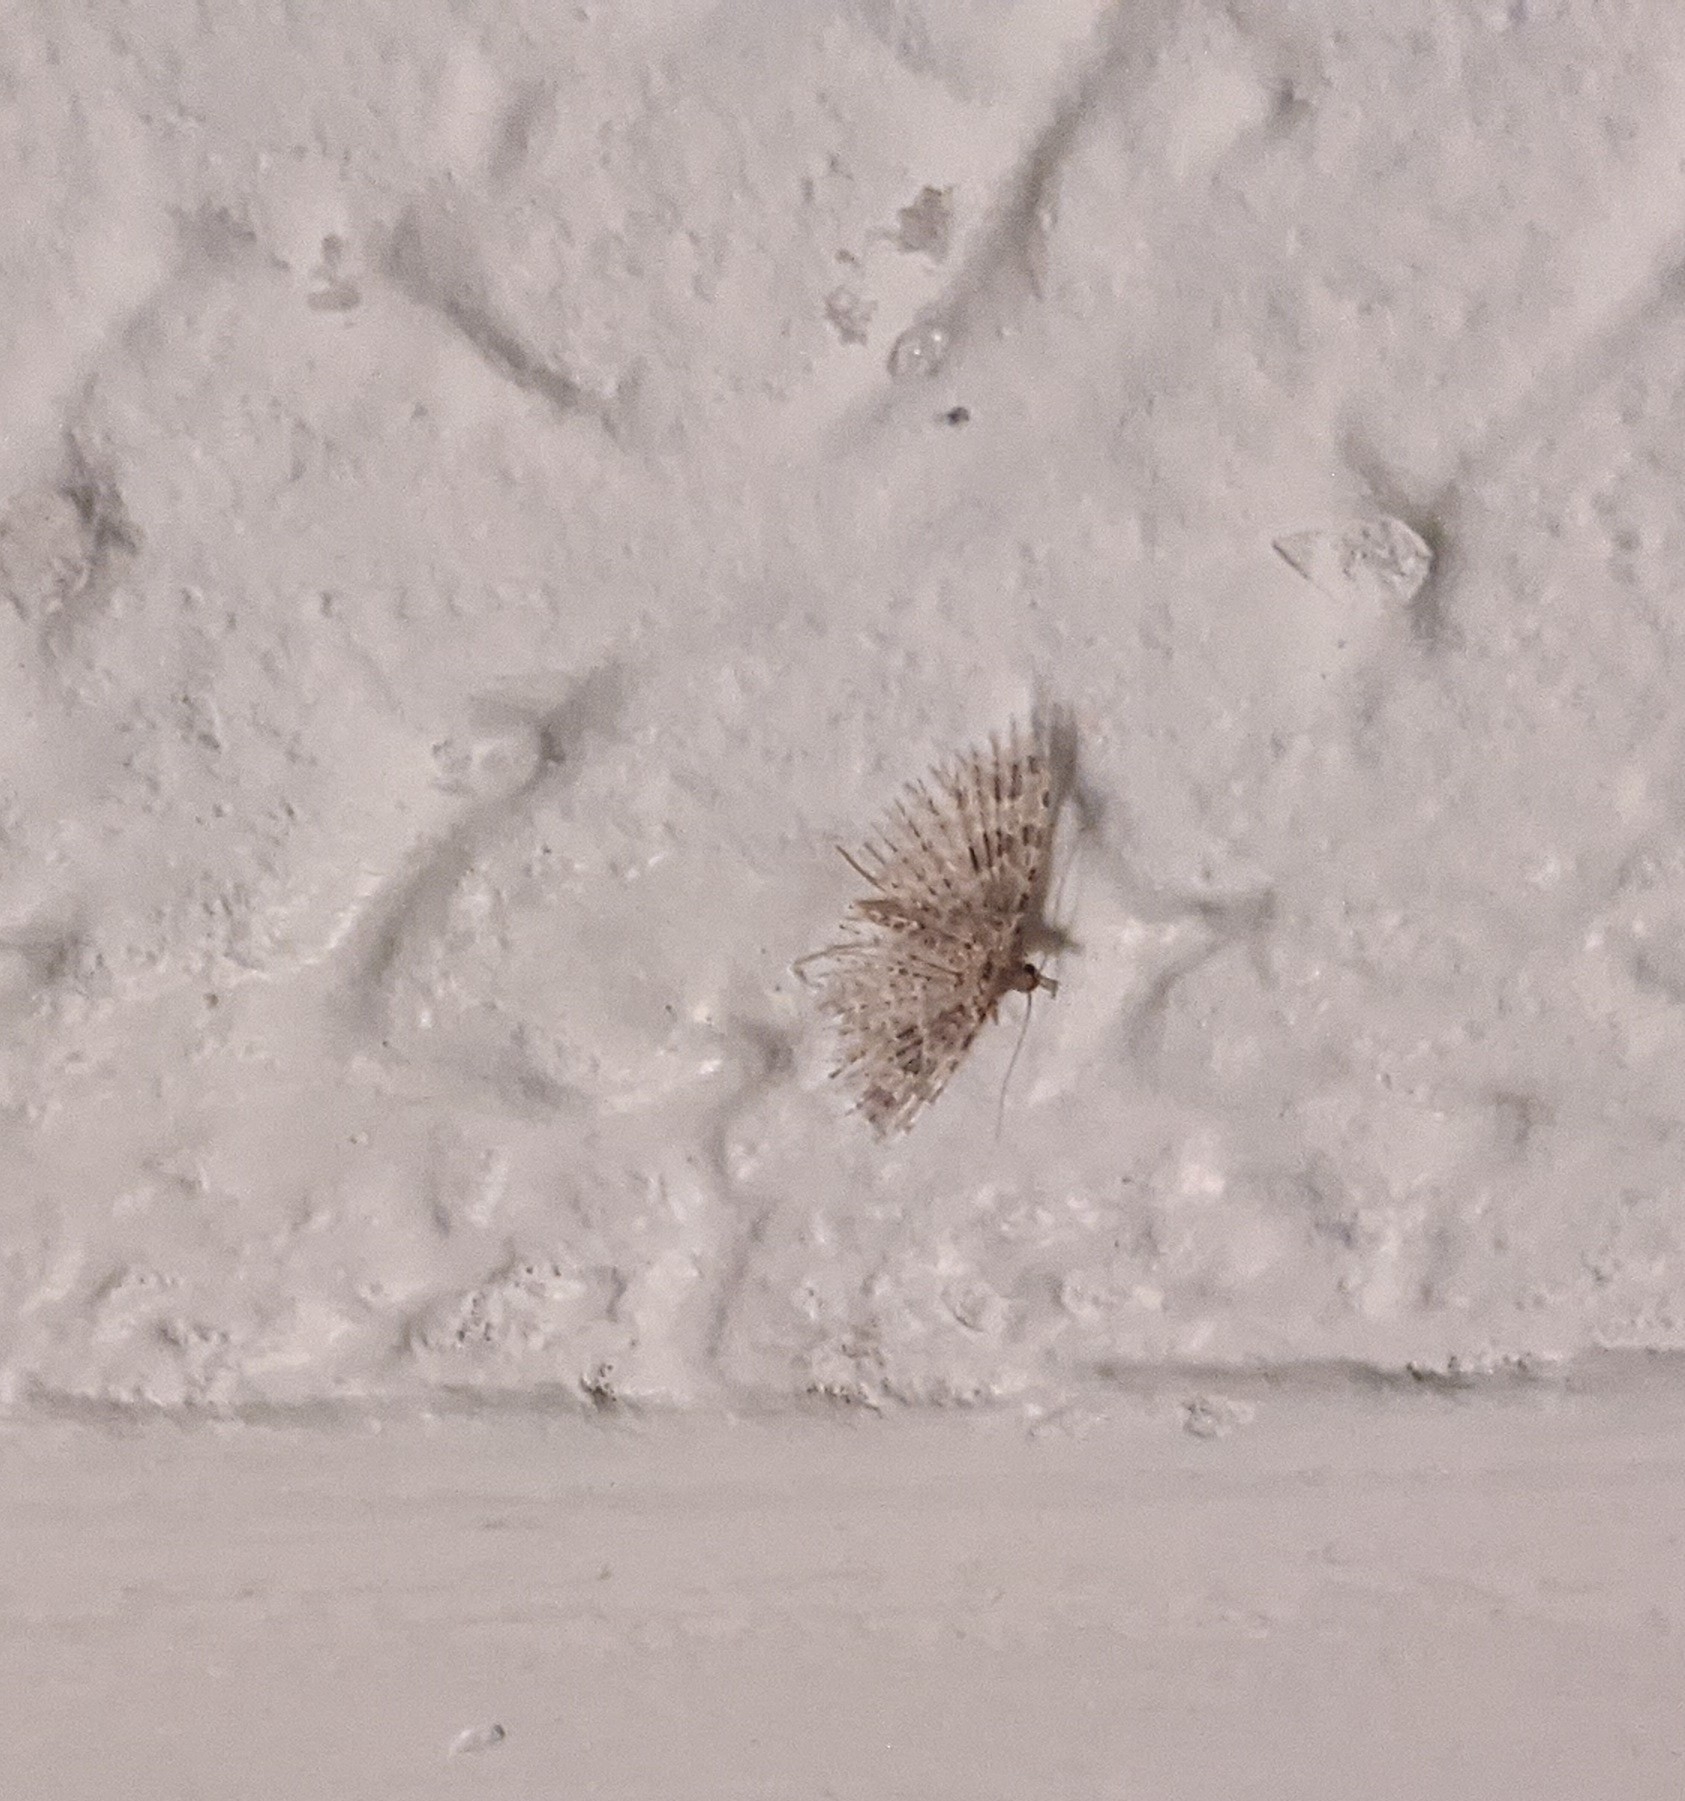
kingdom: Animalia
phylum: Arthropoda
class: Insecta
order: Lepidoptera
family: Alucitidae
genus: Alucita
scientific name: Alucita hexadactyla
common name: Twenty-plume moth
